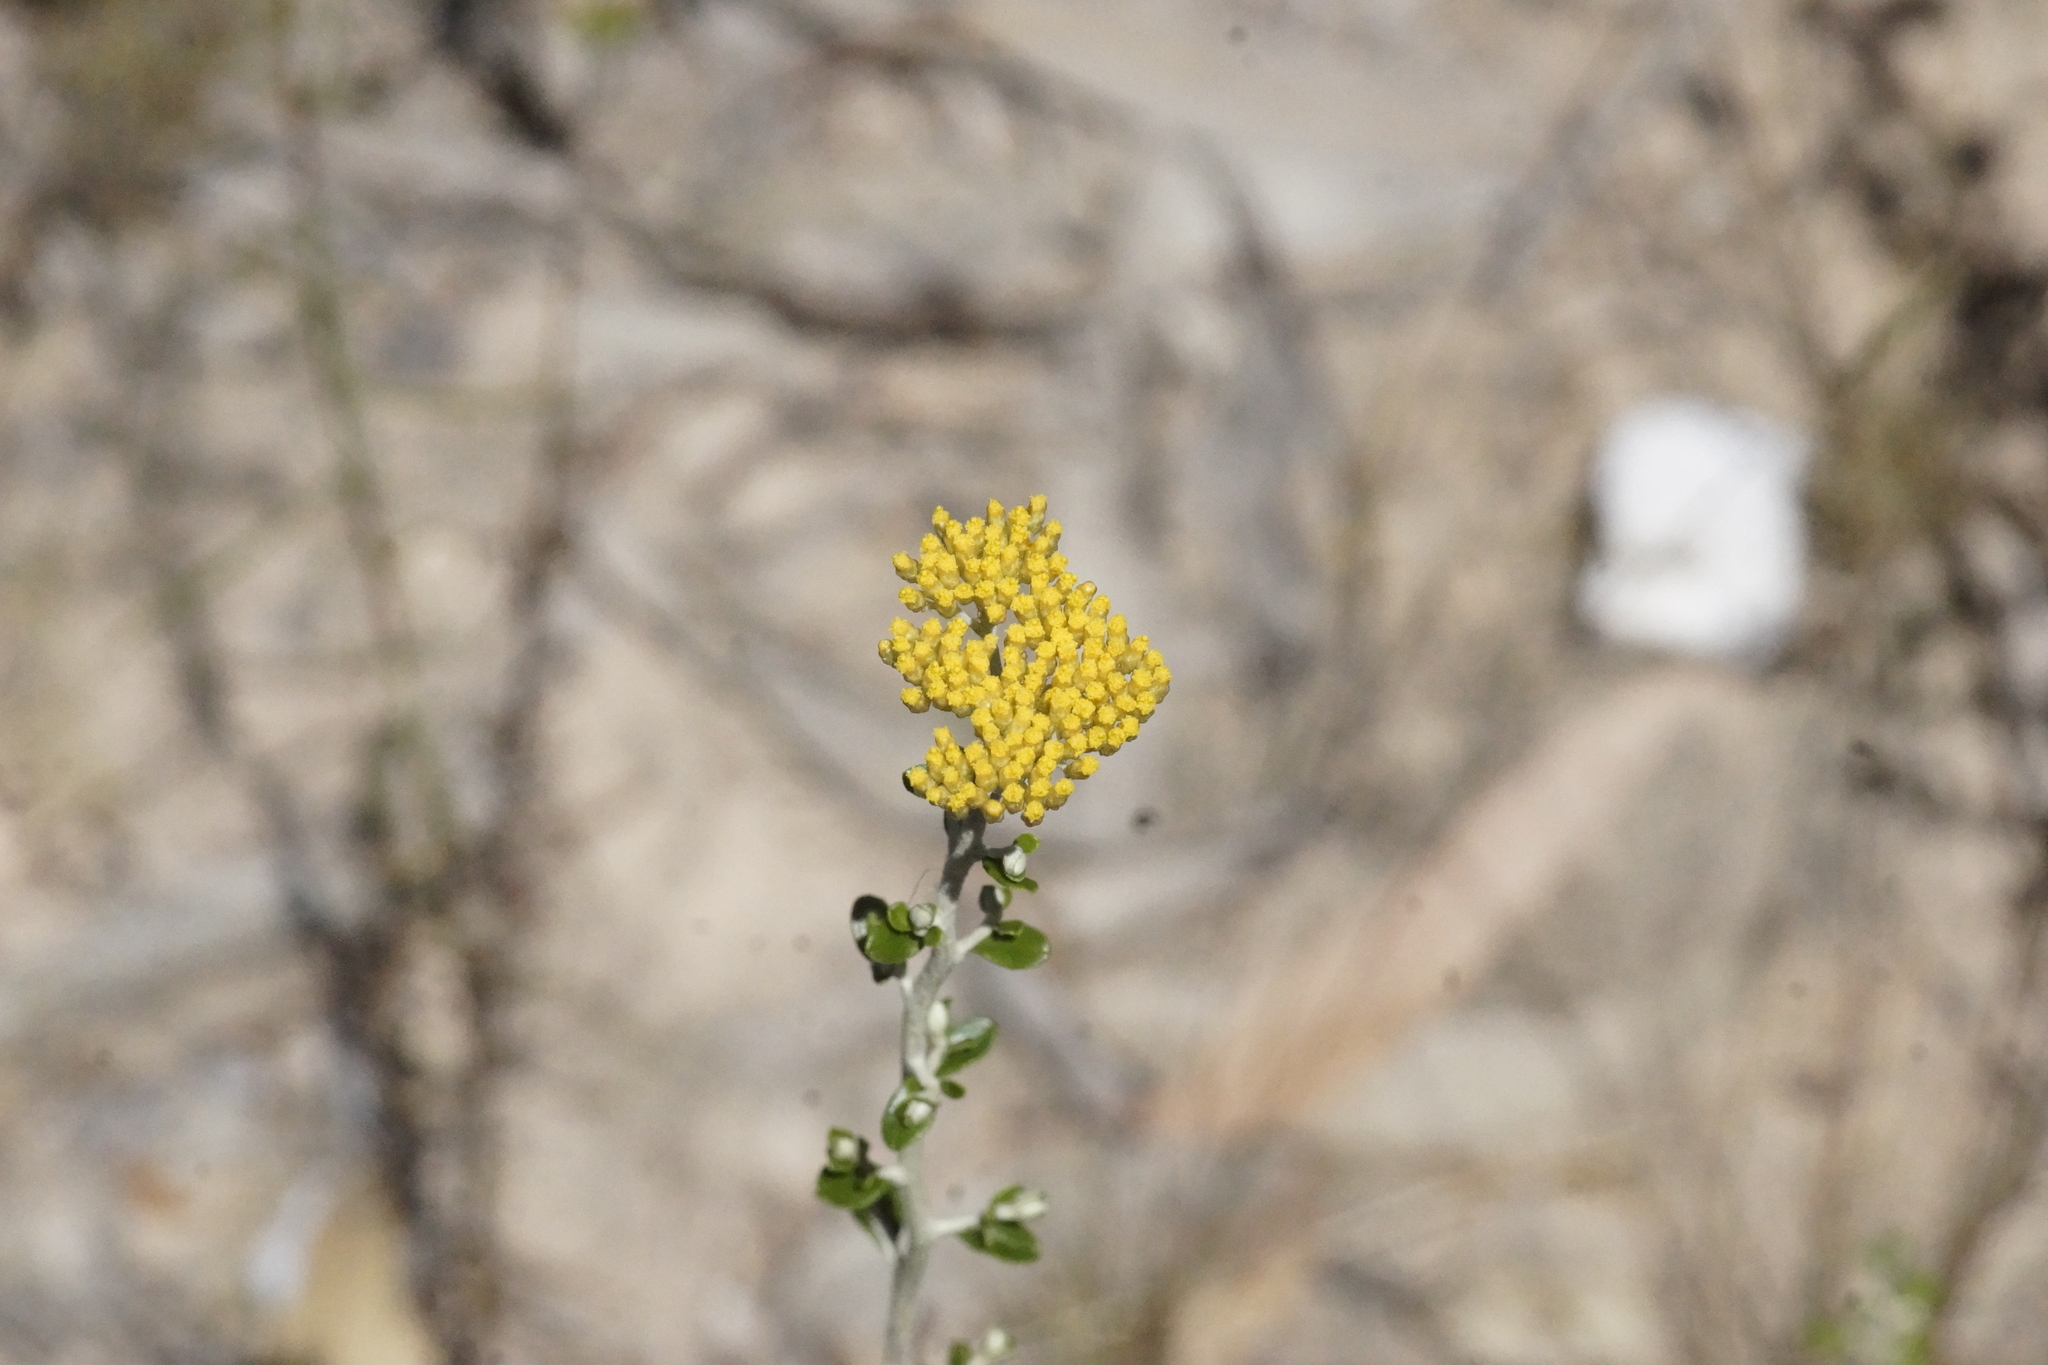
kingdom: Plantae
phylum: Tracheophyta
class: Magnoliopsida
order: Asterales
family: Asteraceae
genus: Ozothamnus
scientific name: Ozothamnus obcordatus
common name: Grey everlasting
